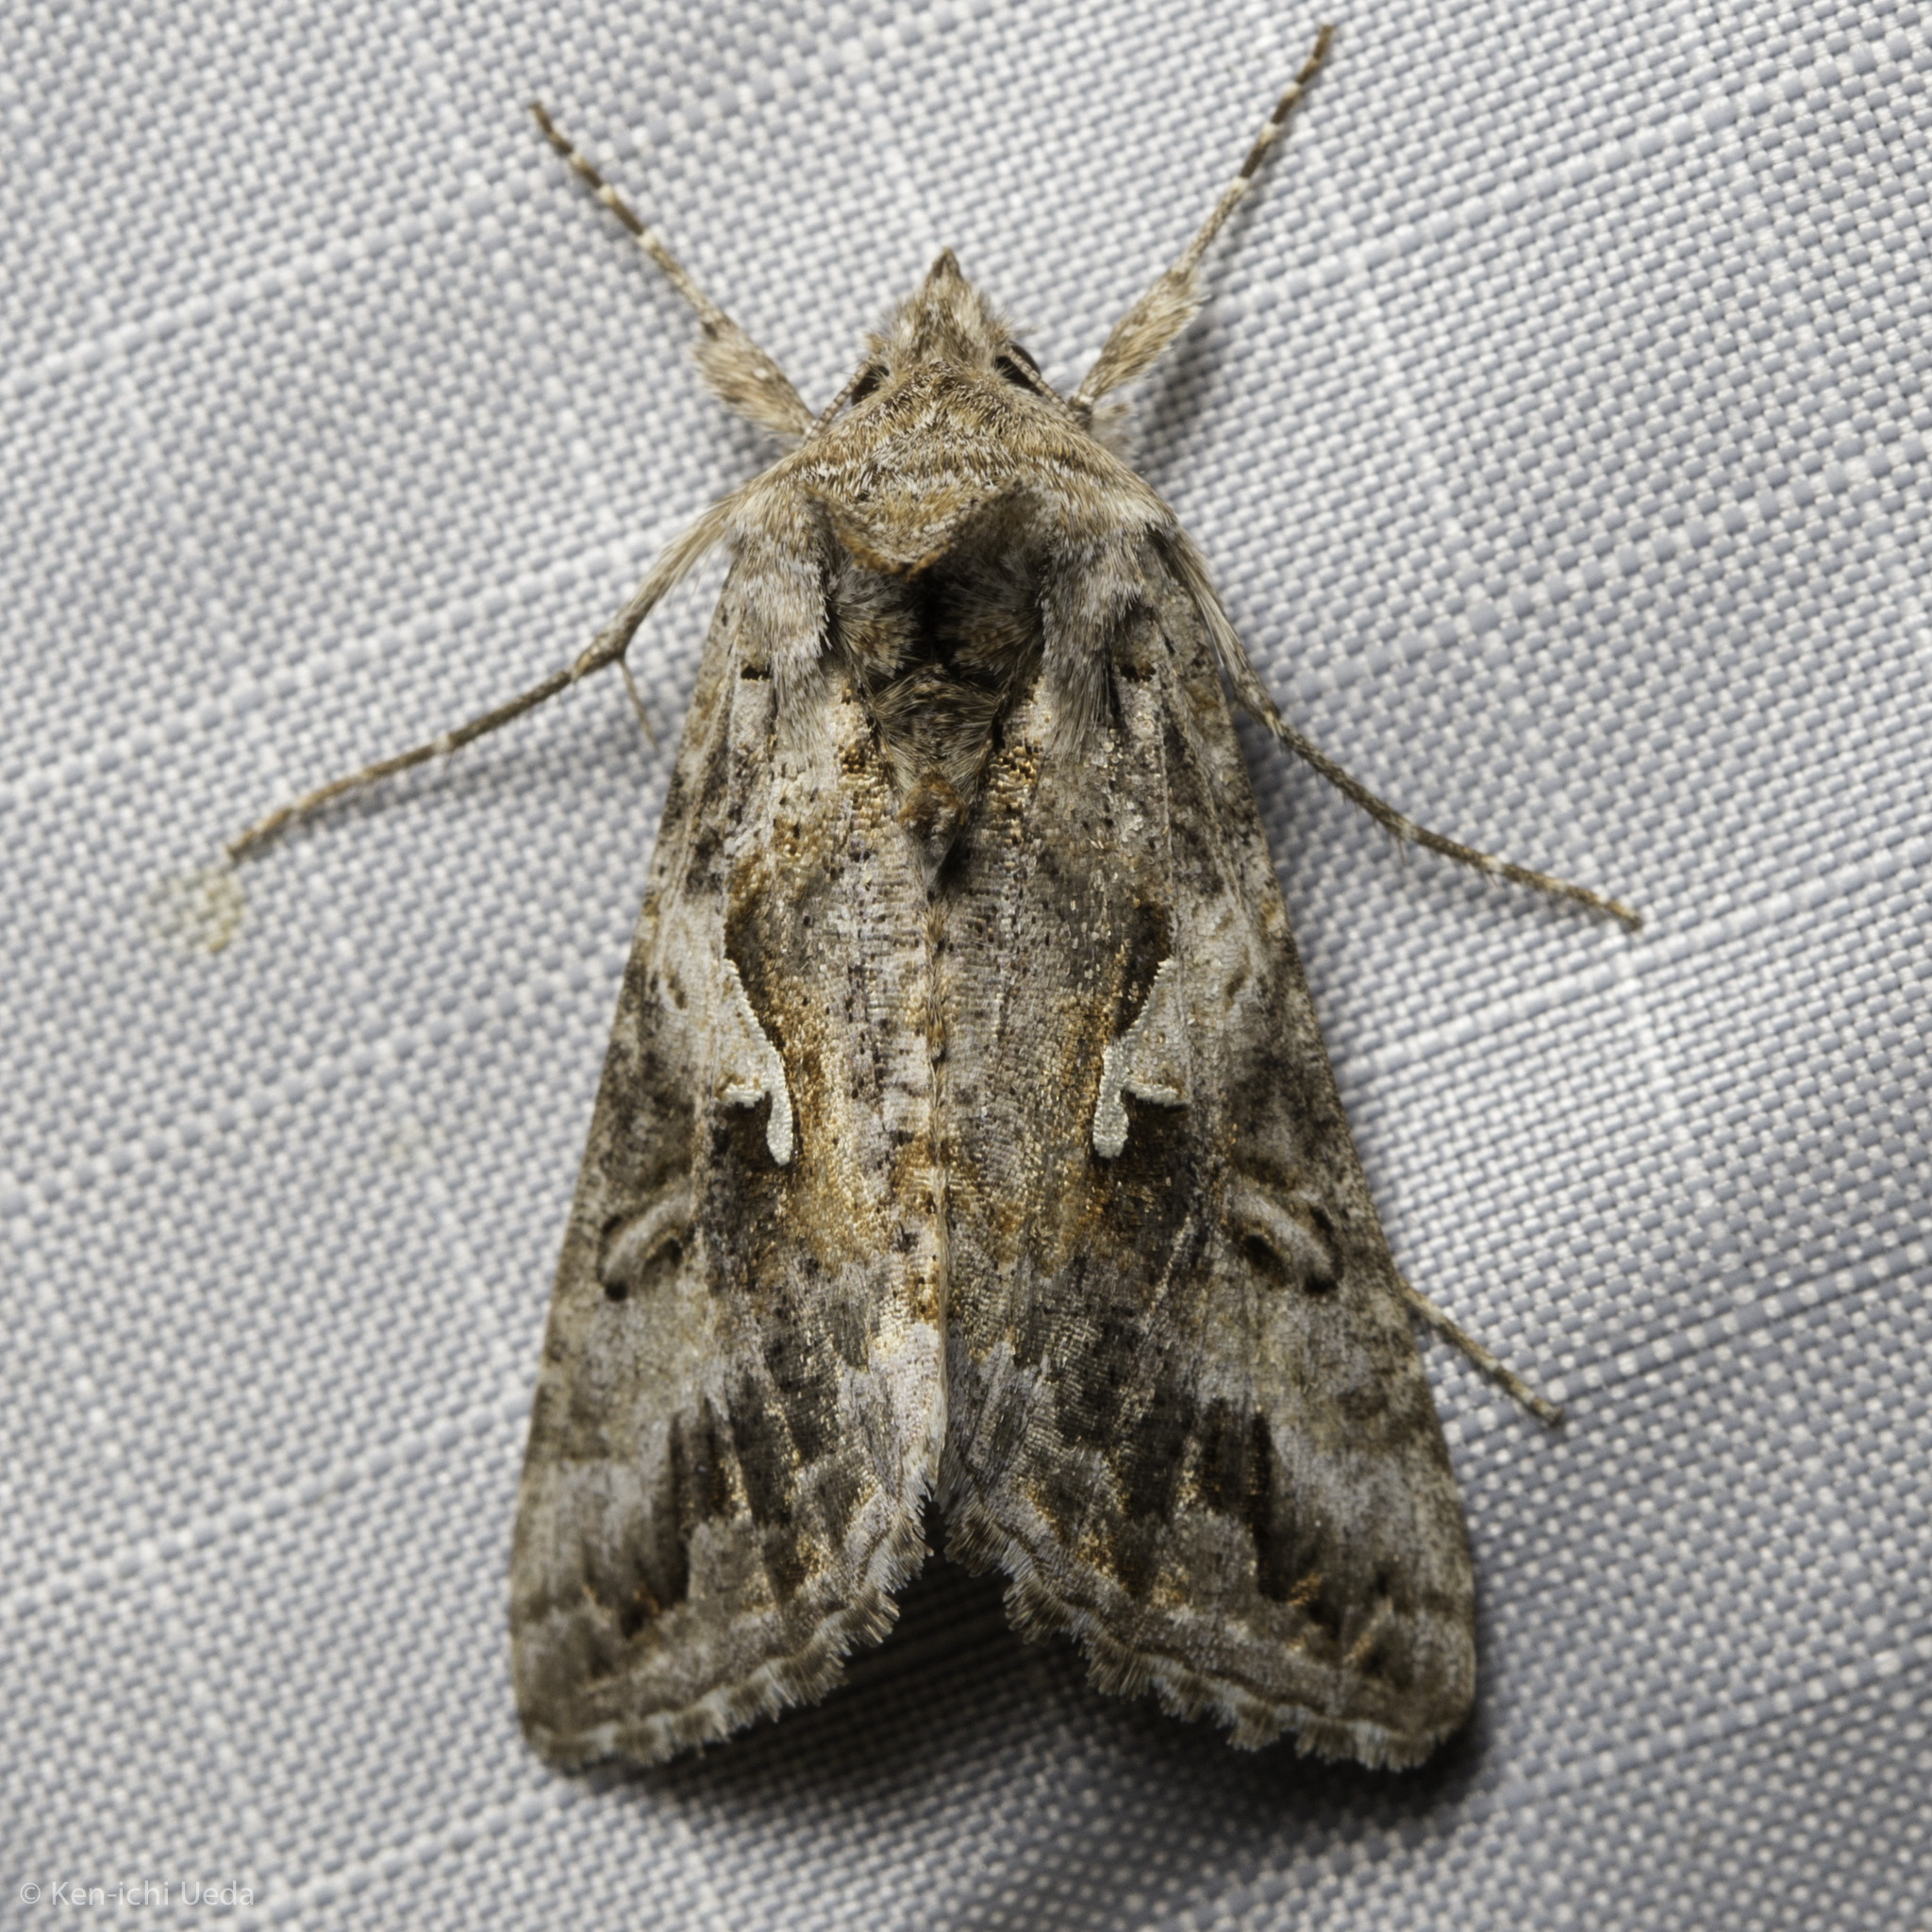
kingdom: Animalia
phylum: Arthropoda
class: Insecta
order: Lepidoptera
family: Noctuidae
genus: Autographa
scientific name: Autographa californica
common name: Alfalfa looper
